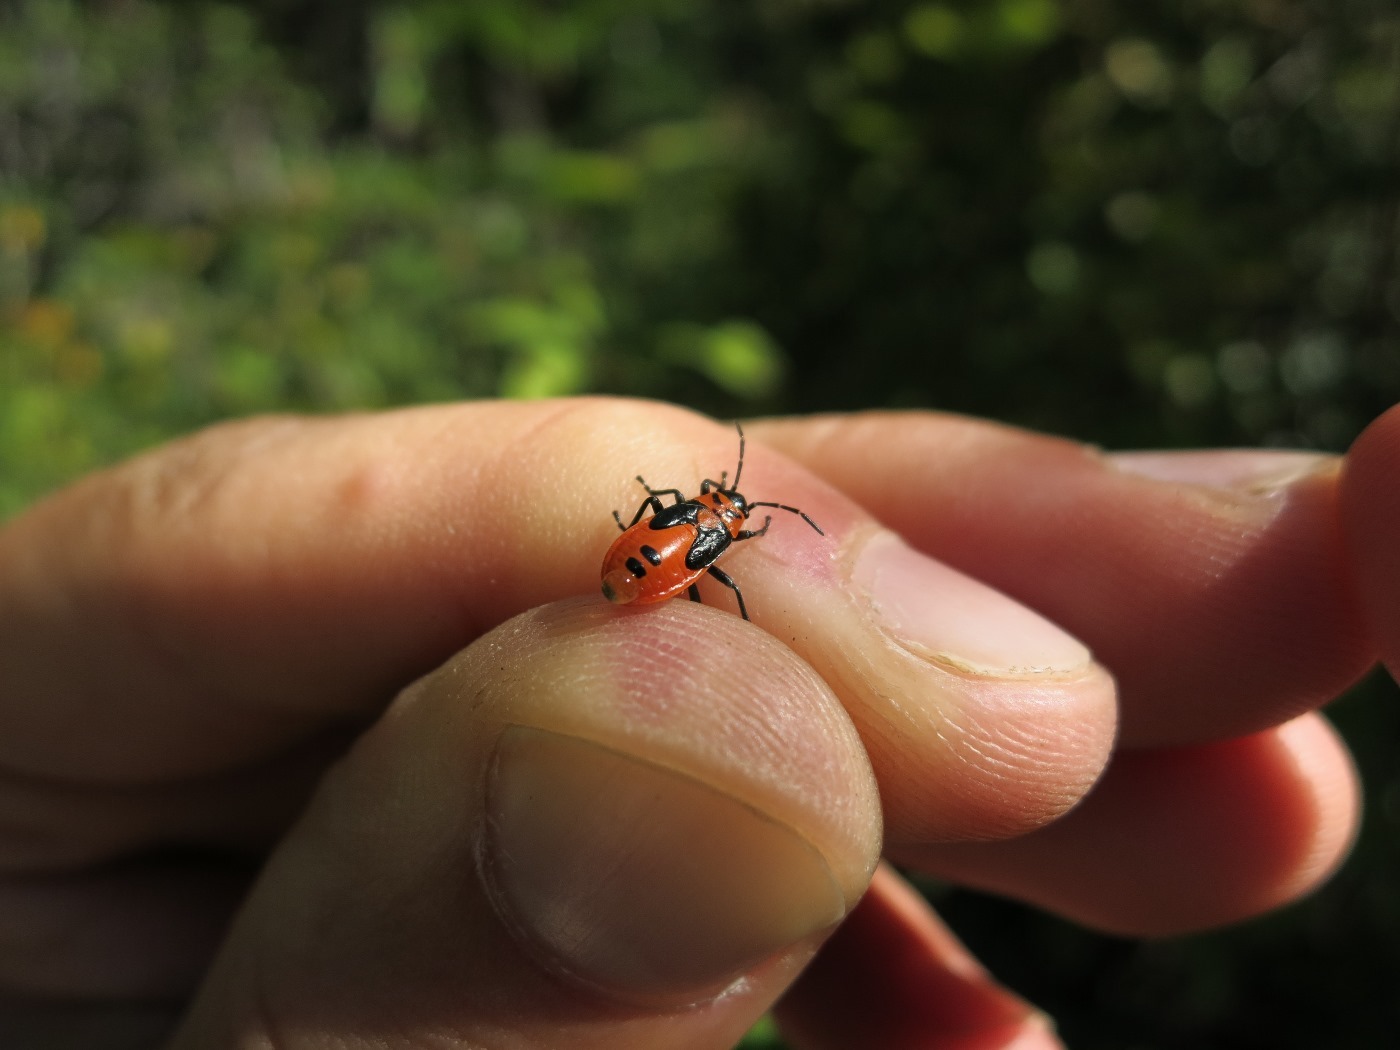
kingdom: Animalia
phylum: Arthropoda
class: Insecta
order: Hemiptera
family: Lygaeidae
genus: Lygaeus
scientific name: Lygaeus turcicus
